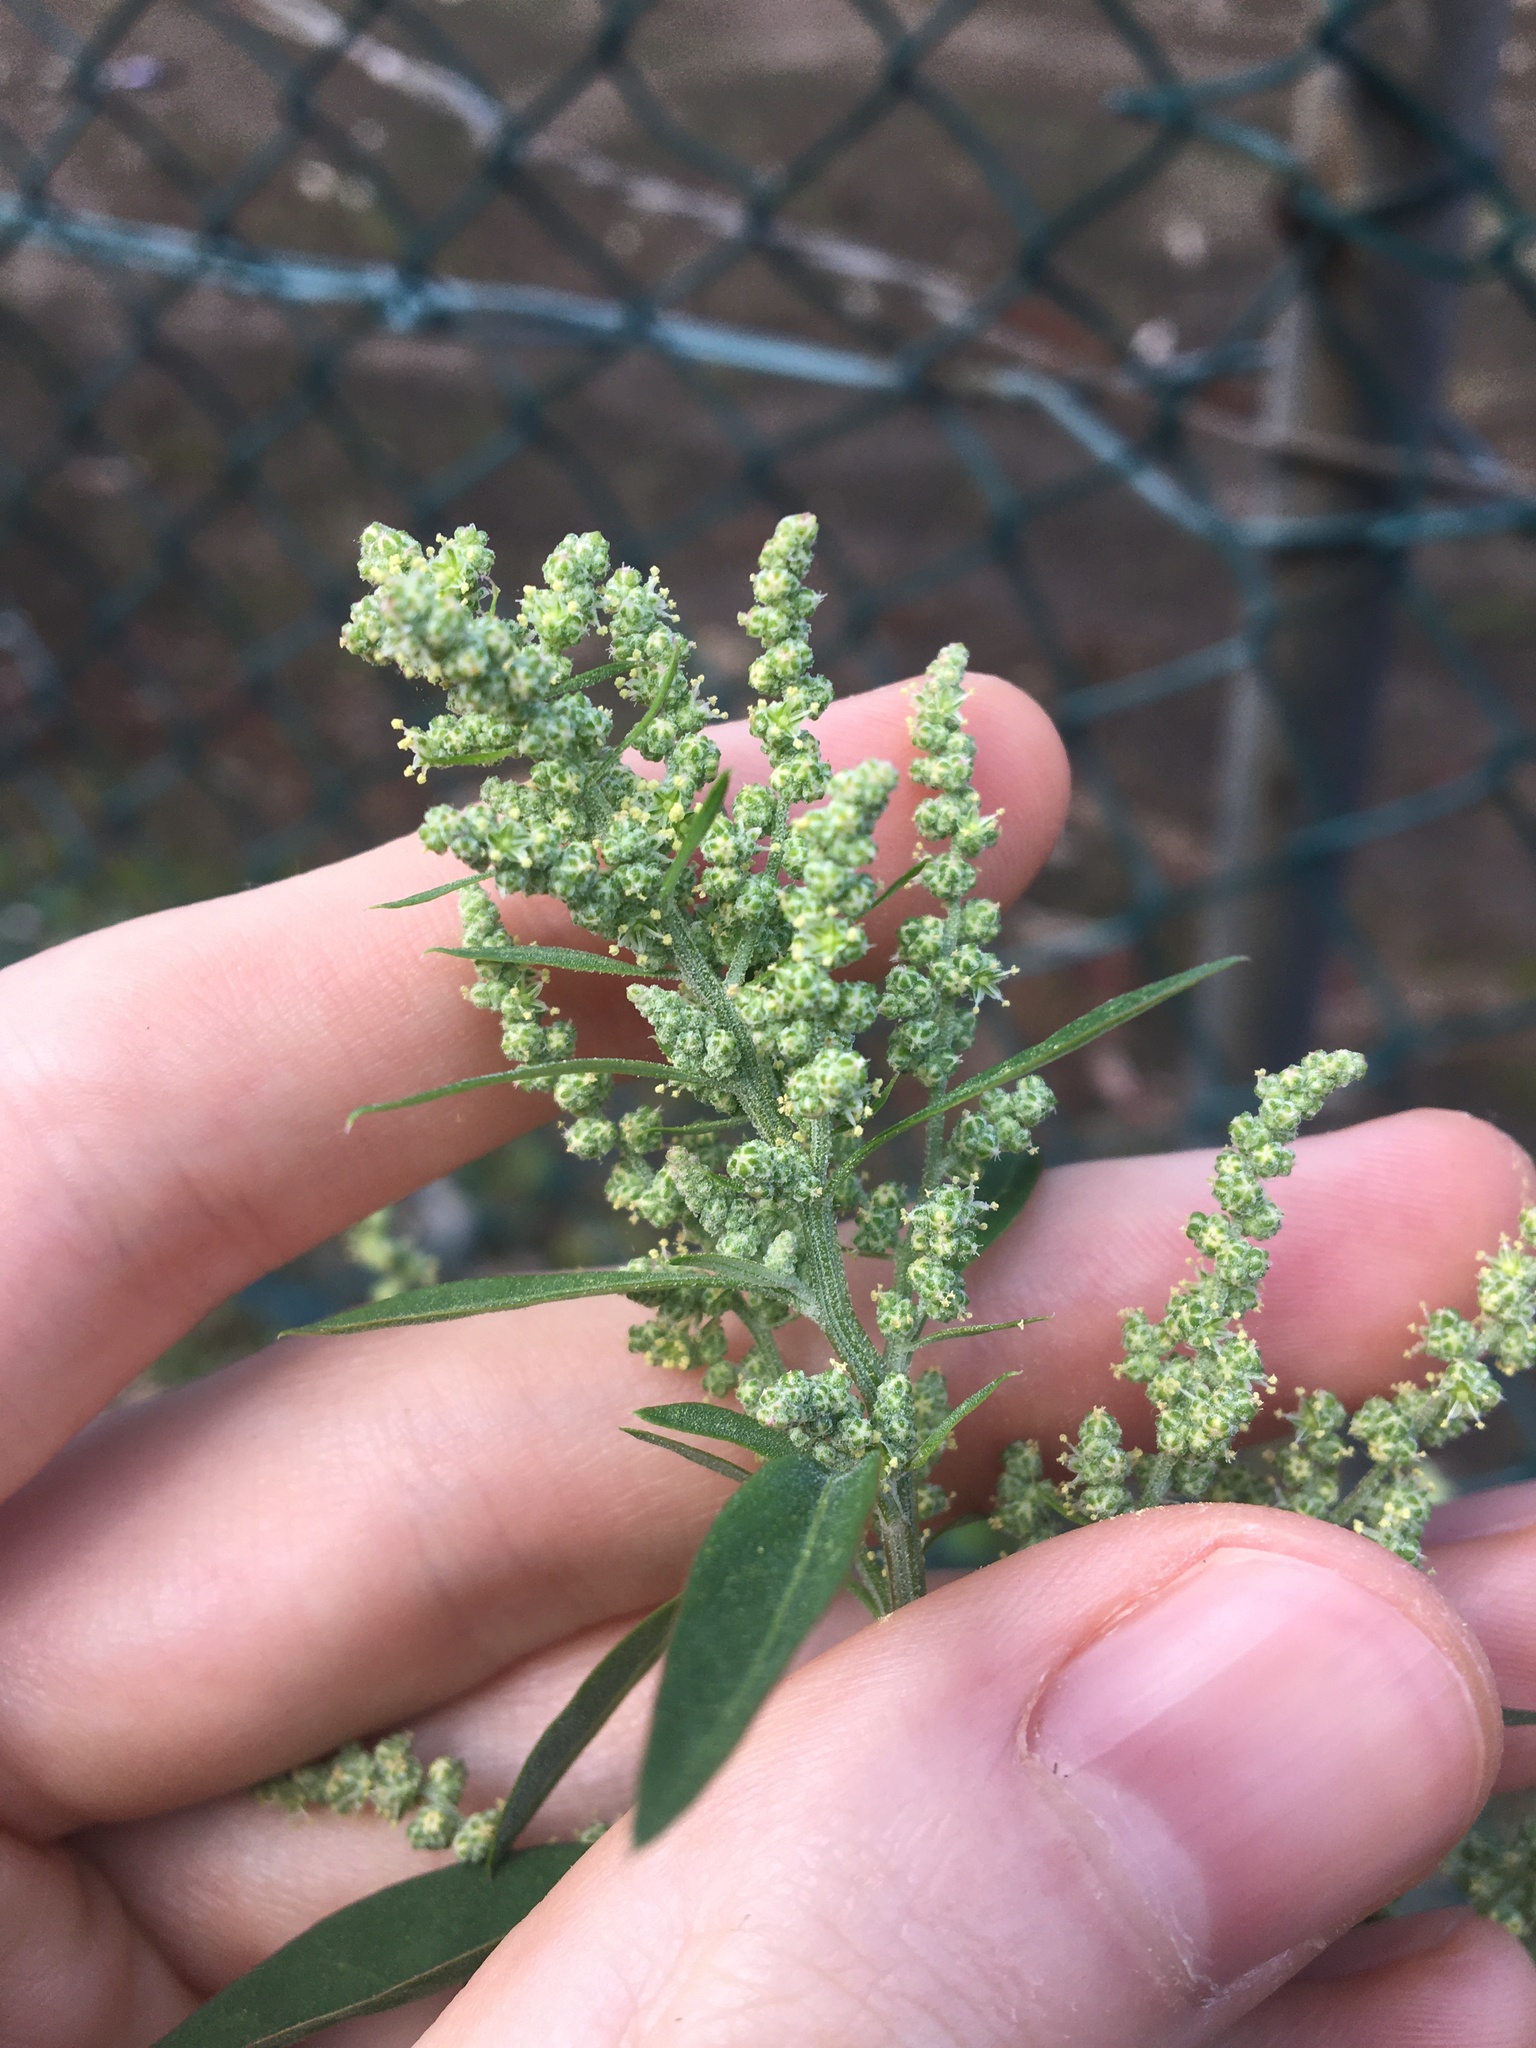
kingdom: Plantae
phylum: Tracheophyta
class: Magnoliopsida
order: Caryophyllales
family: Amaranthaceae
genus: Chenopodium
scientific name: Chenopodium album
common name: Fat-hen
